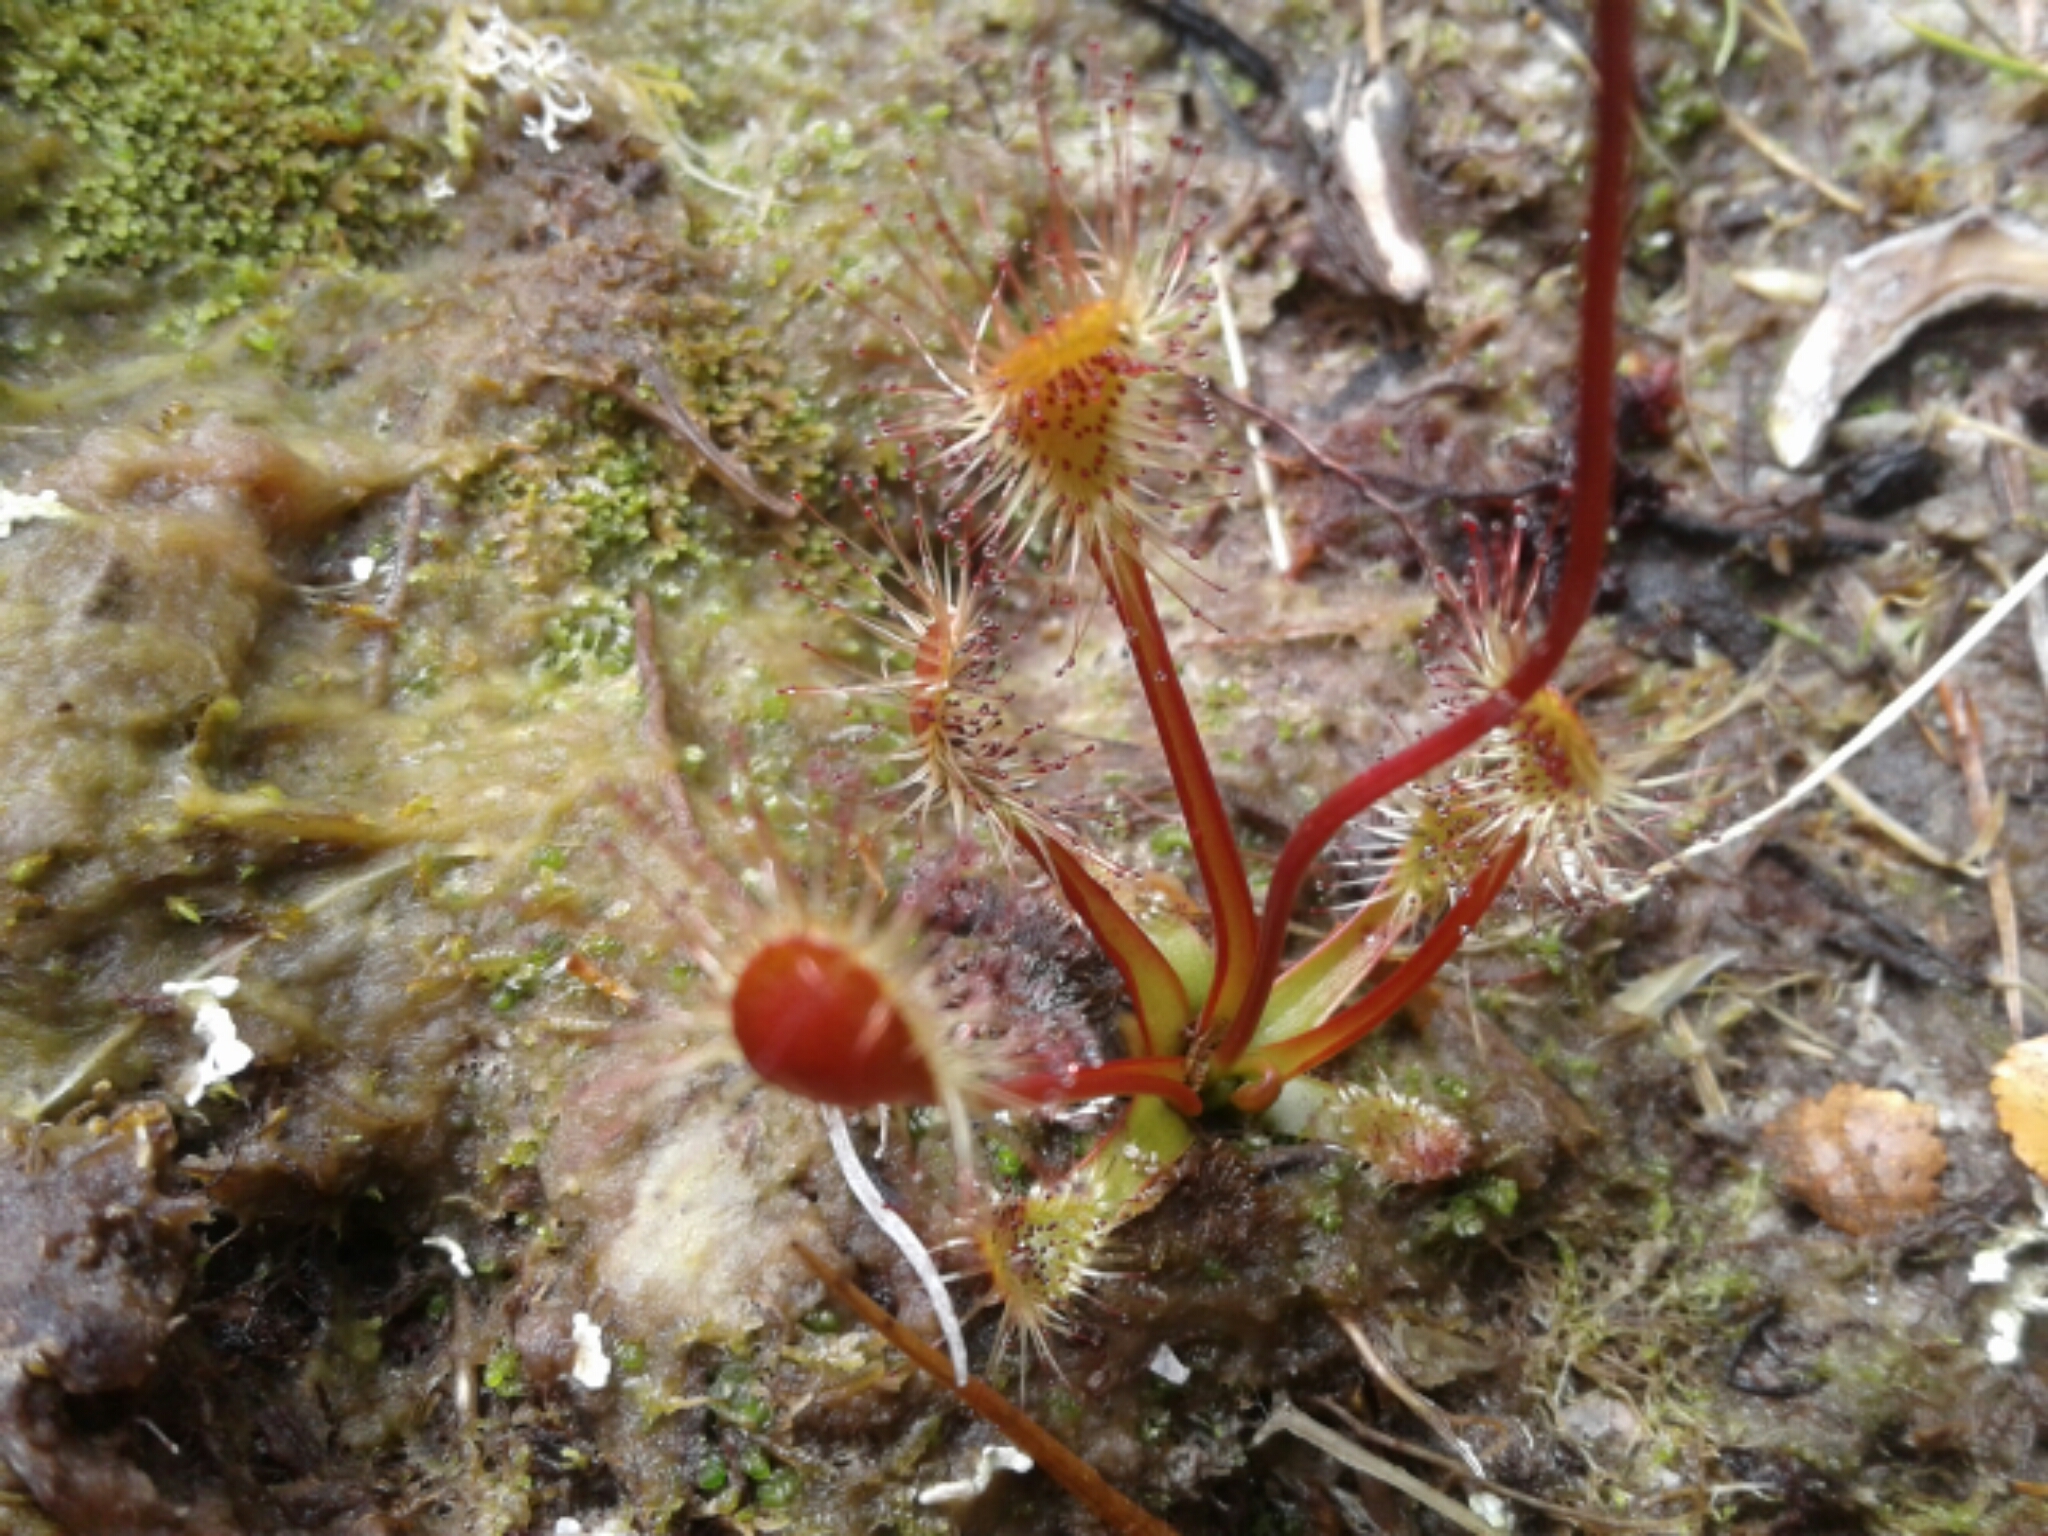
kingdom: Plantae
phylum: Tracheophyta
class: Magnoliopsida
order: Caryophyllales
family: Droseraceae
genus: Drosera
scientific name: Drosera stenopetala
